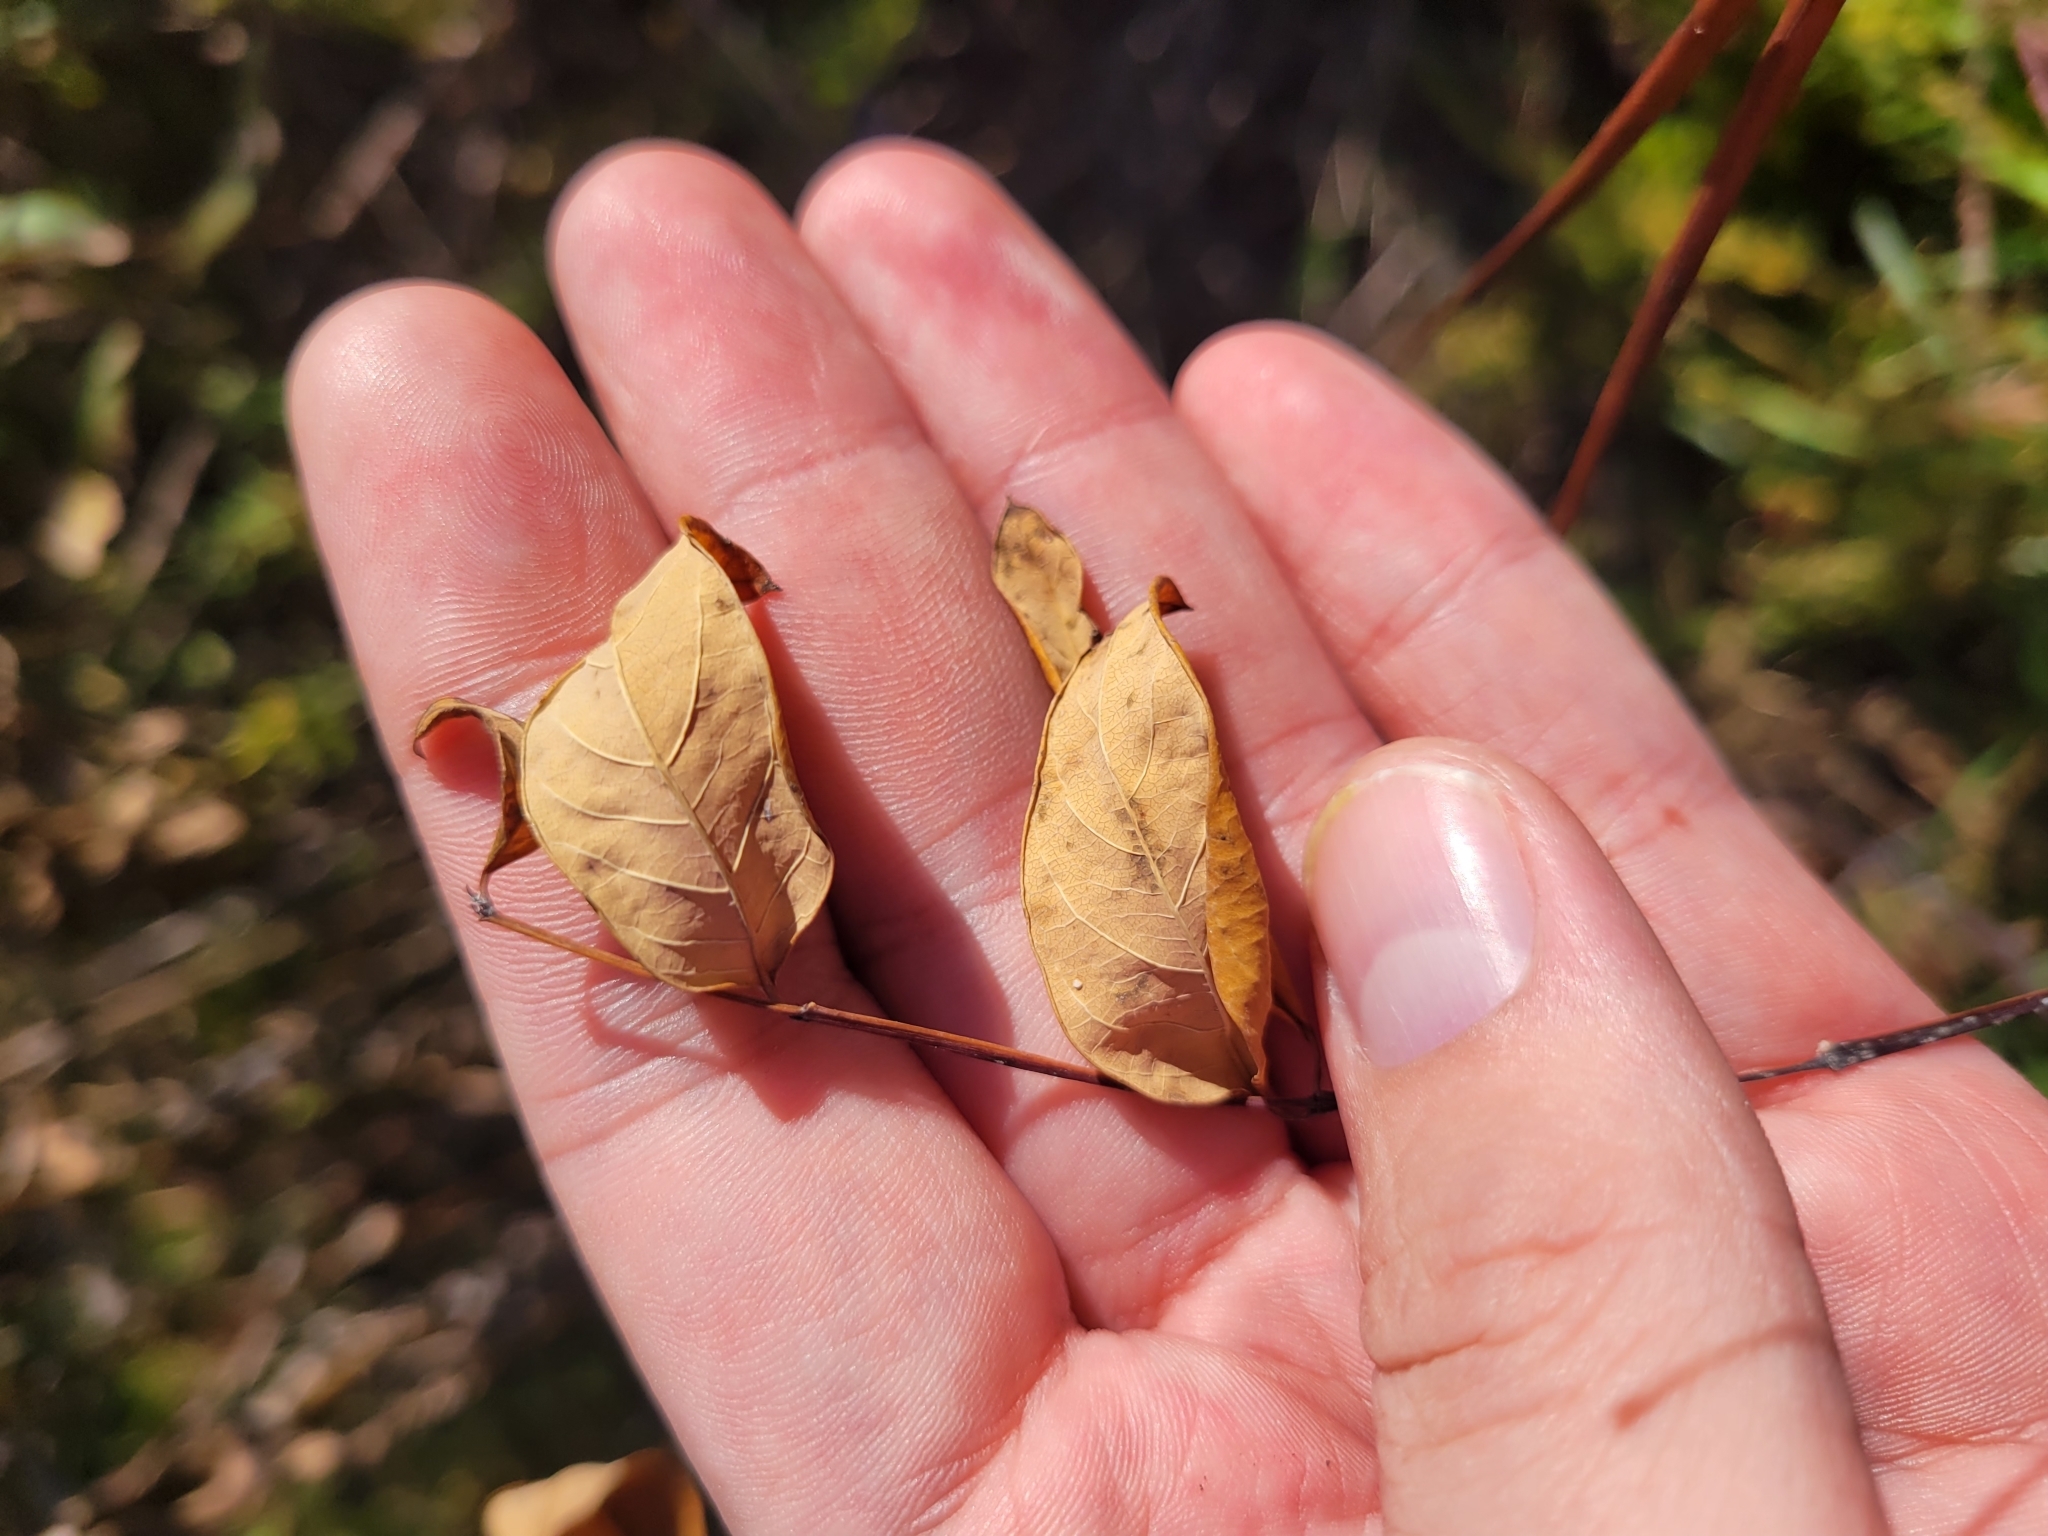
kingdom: Plantae
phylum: Tracheophyta
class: Magnoliopsida
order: Gentianales
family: Apocynaceae
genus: Apocynum
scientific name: Apocynum cannabinum
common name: Hemp dogbane
